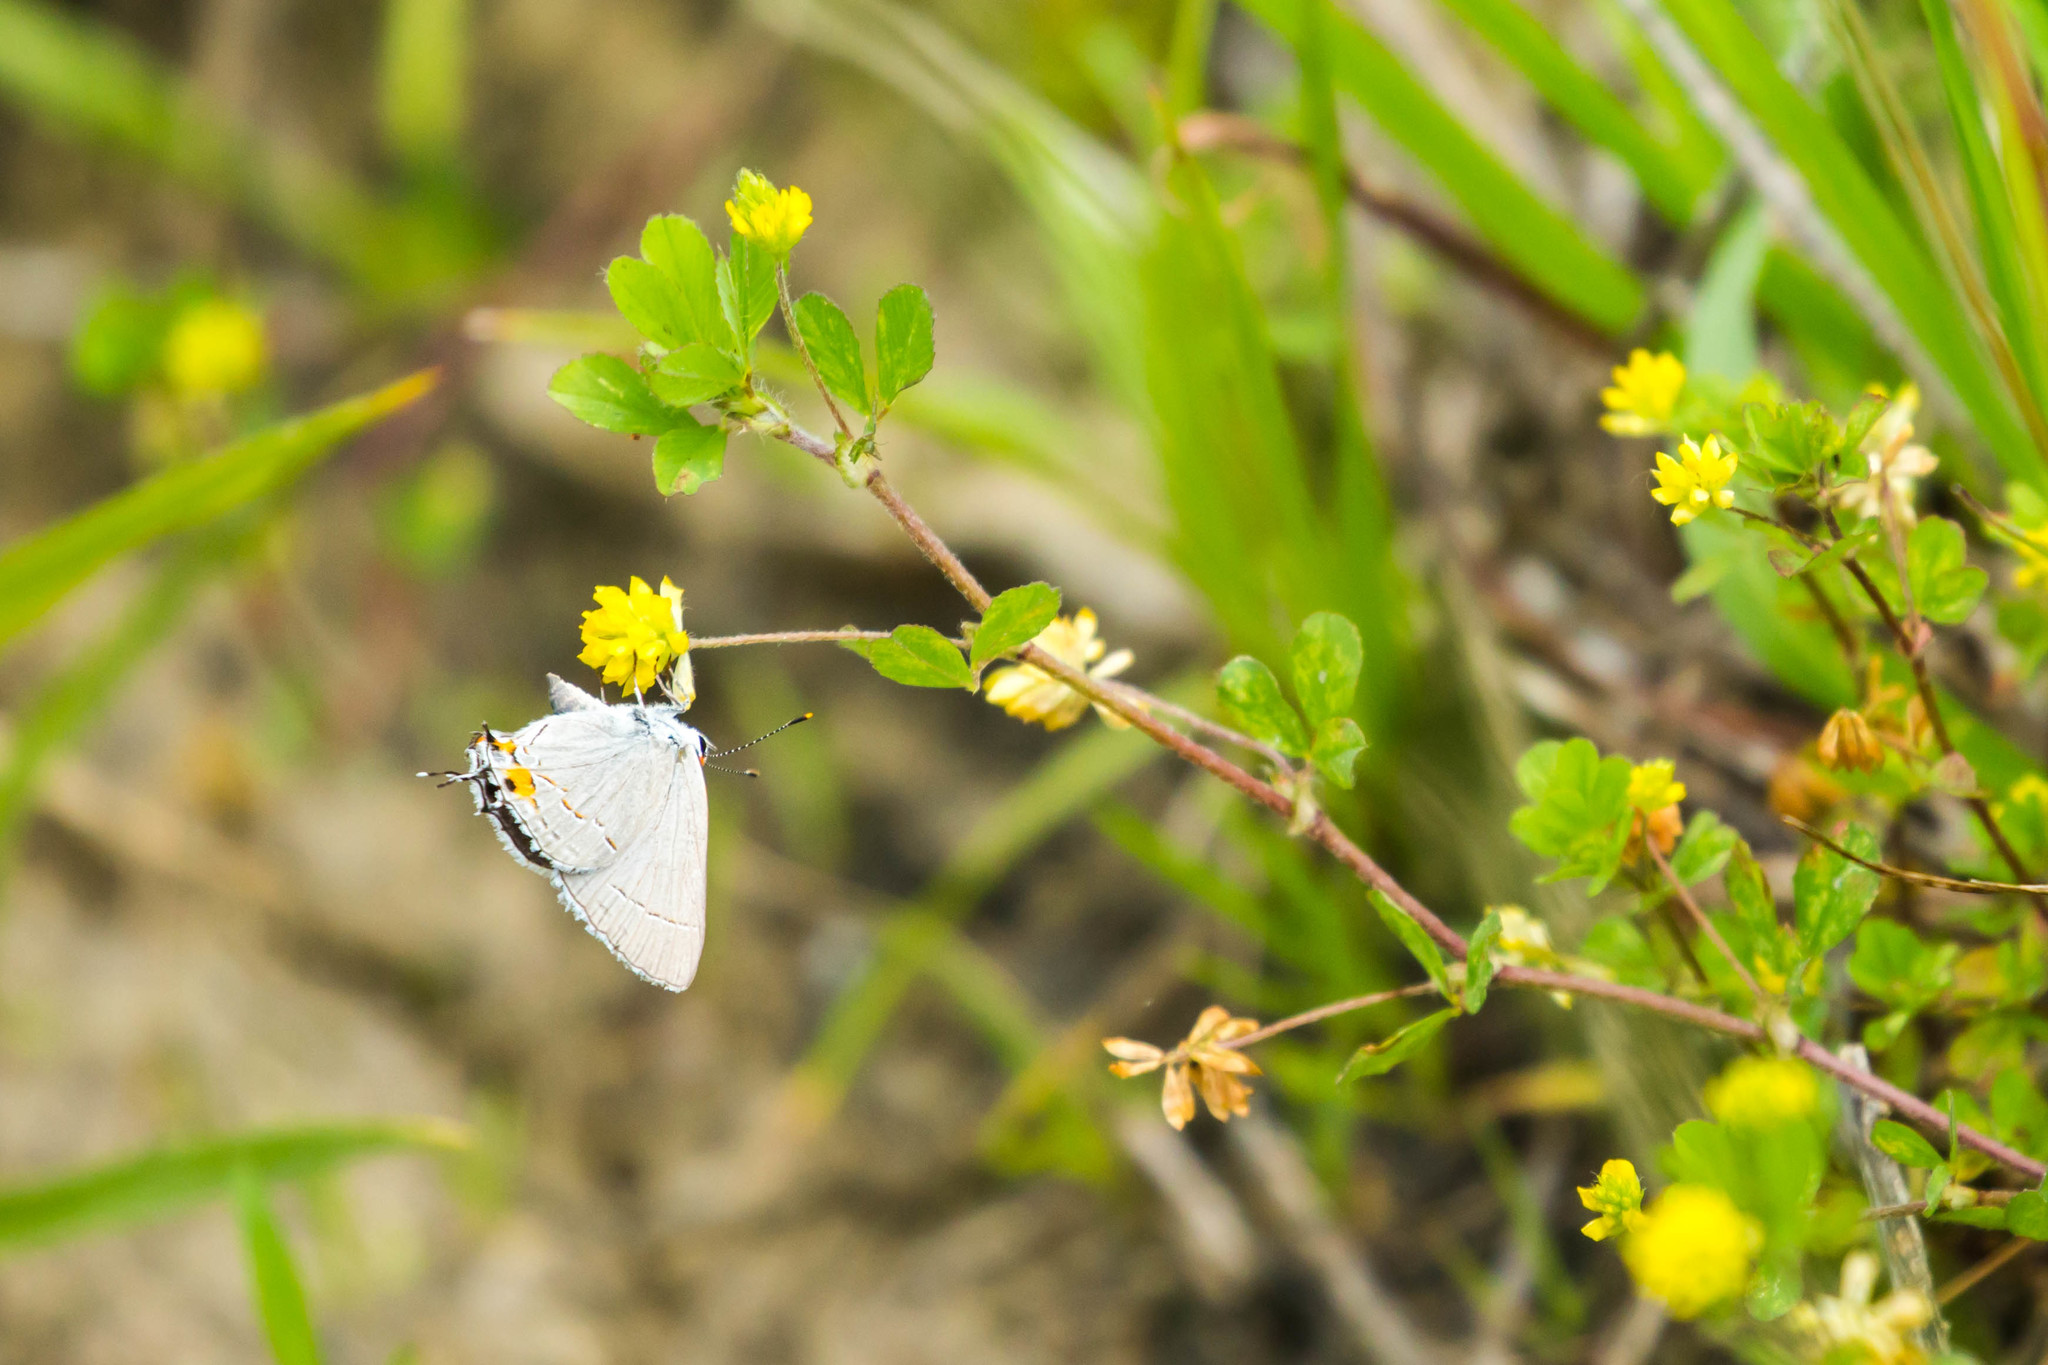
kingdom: Animalia
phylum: Arthropoda
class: Insecta
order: Lepidoptera
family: Lycaenidae
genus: Strymon
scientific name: Strymon melinus
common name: Gray hairstreak
